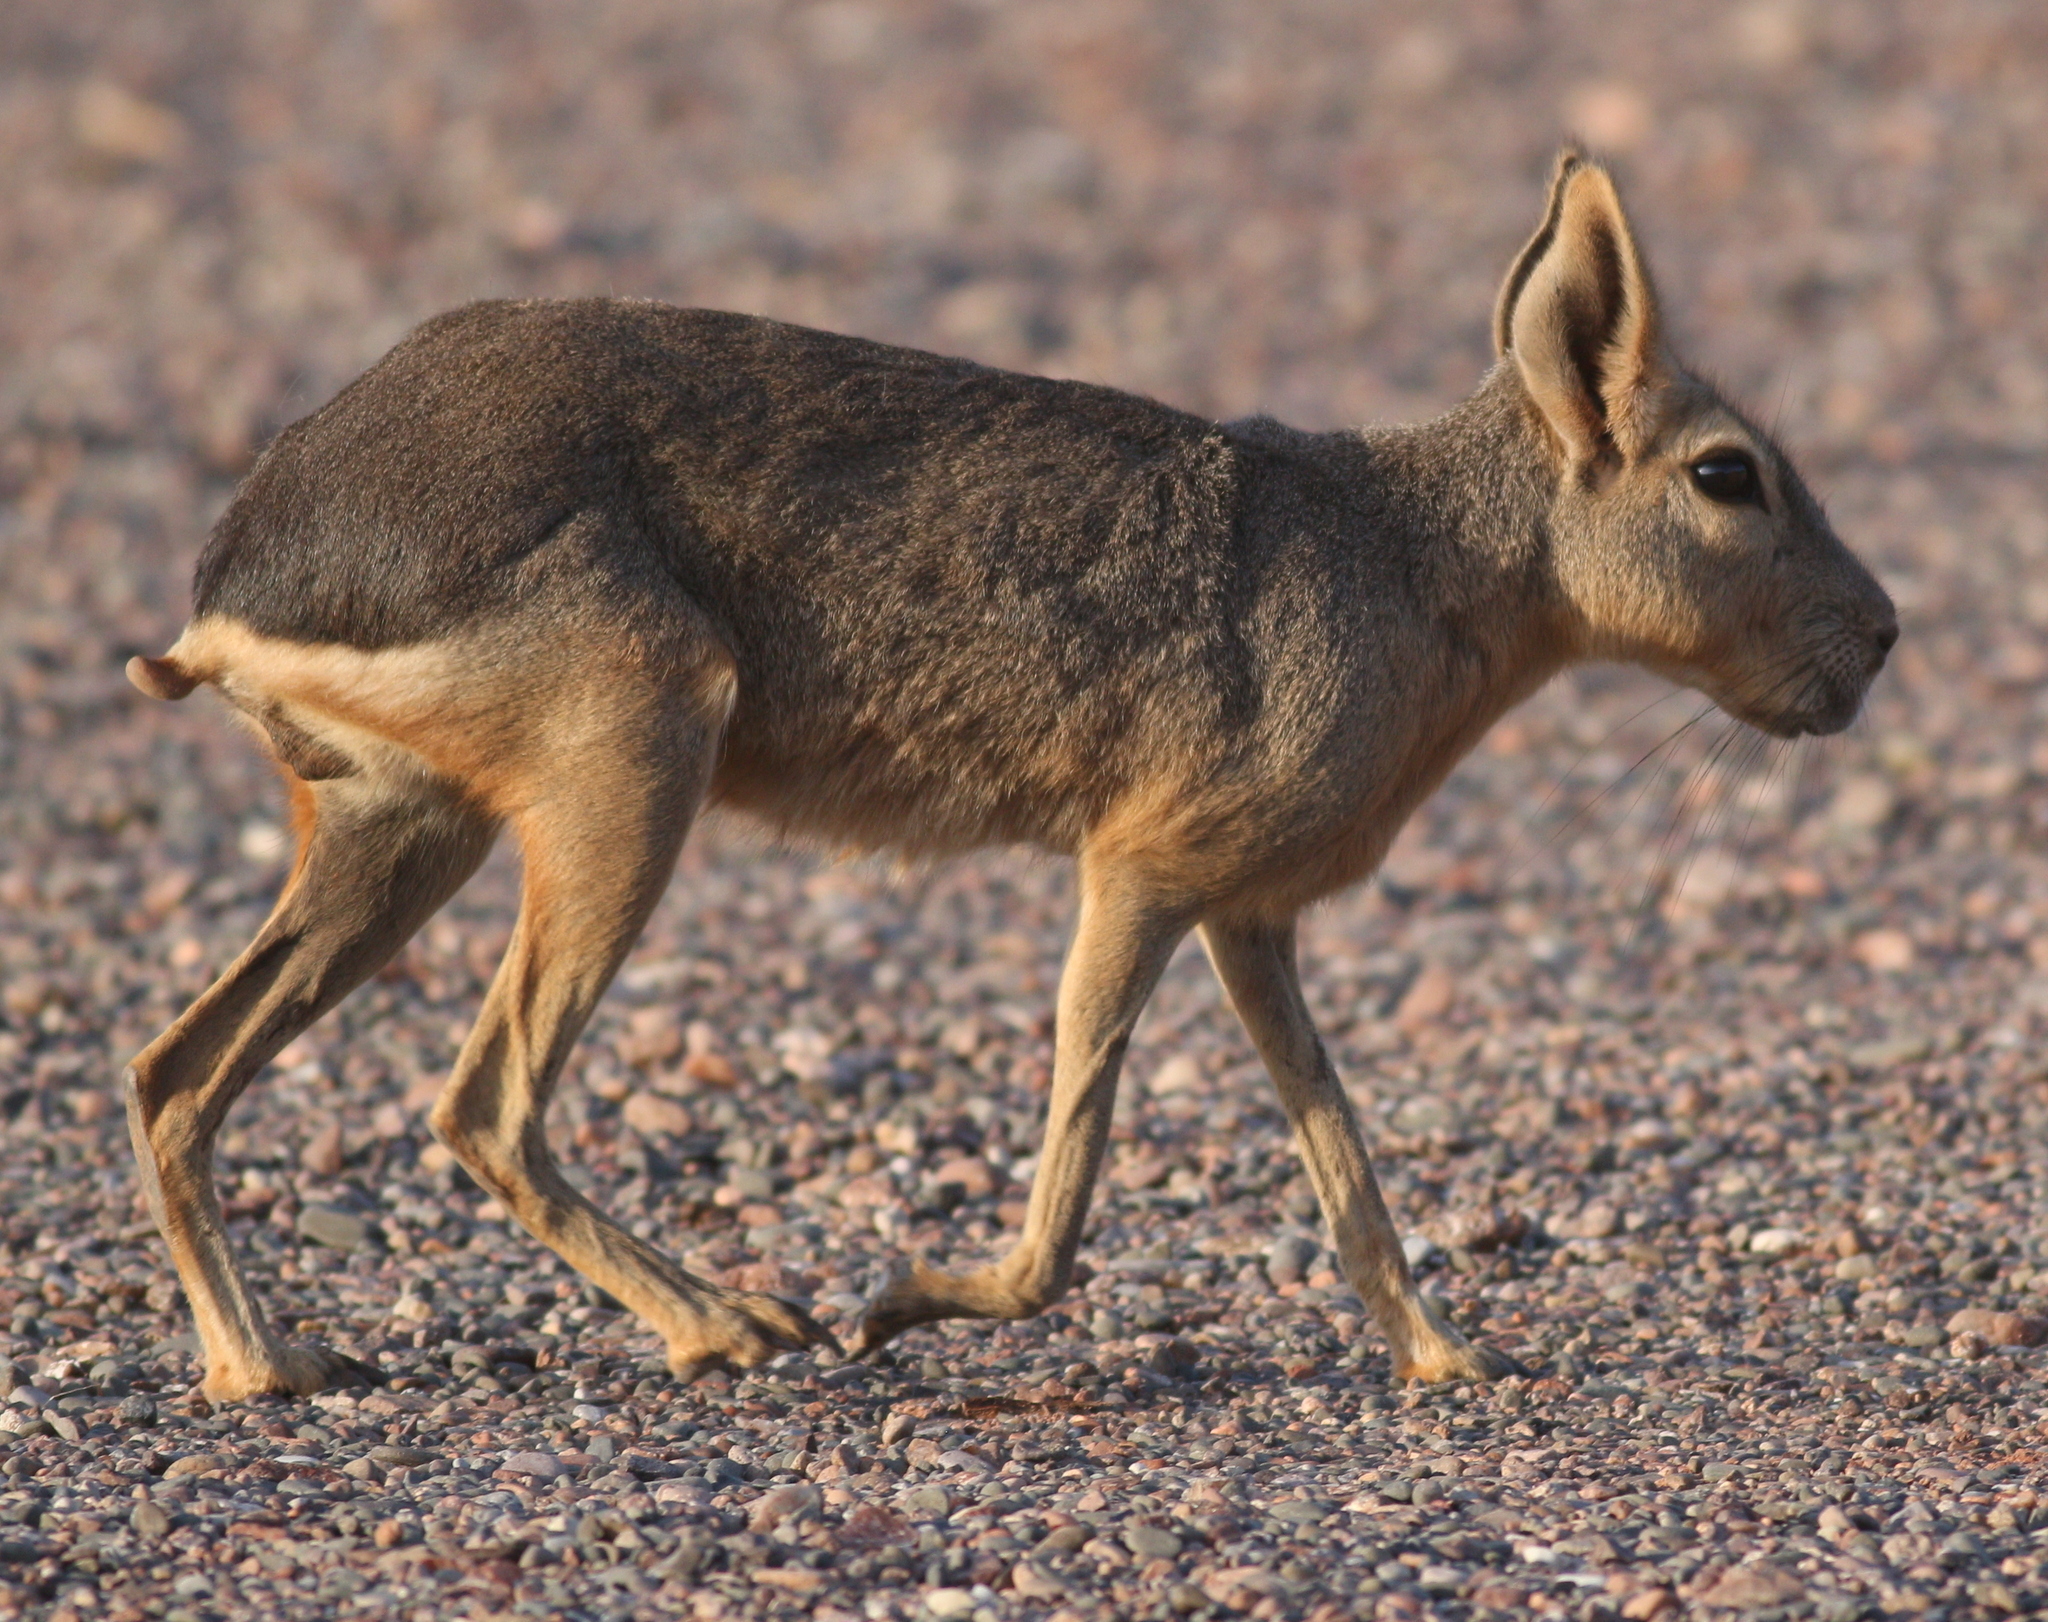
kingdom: Animalia
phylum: Chordata
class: Mammalia
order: Rodentia
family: Caviidae
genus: Dolichotis
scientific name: Dolichotis patagonum
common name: Patagonian mara
